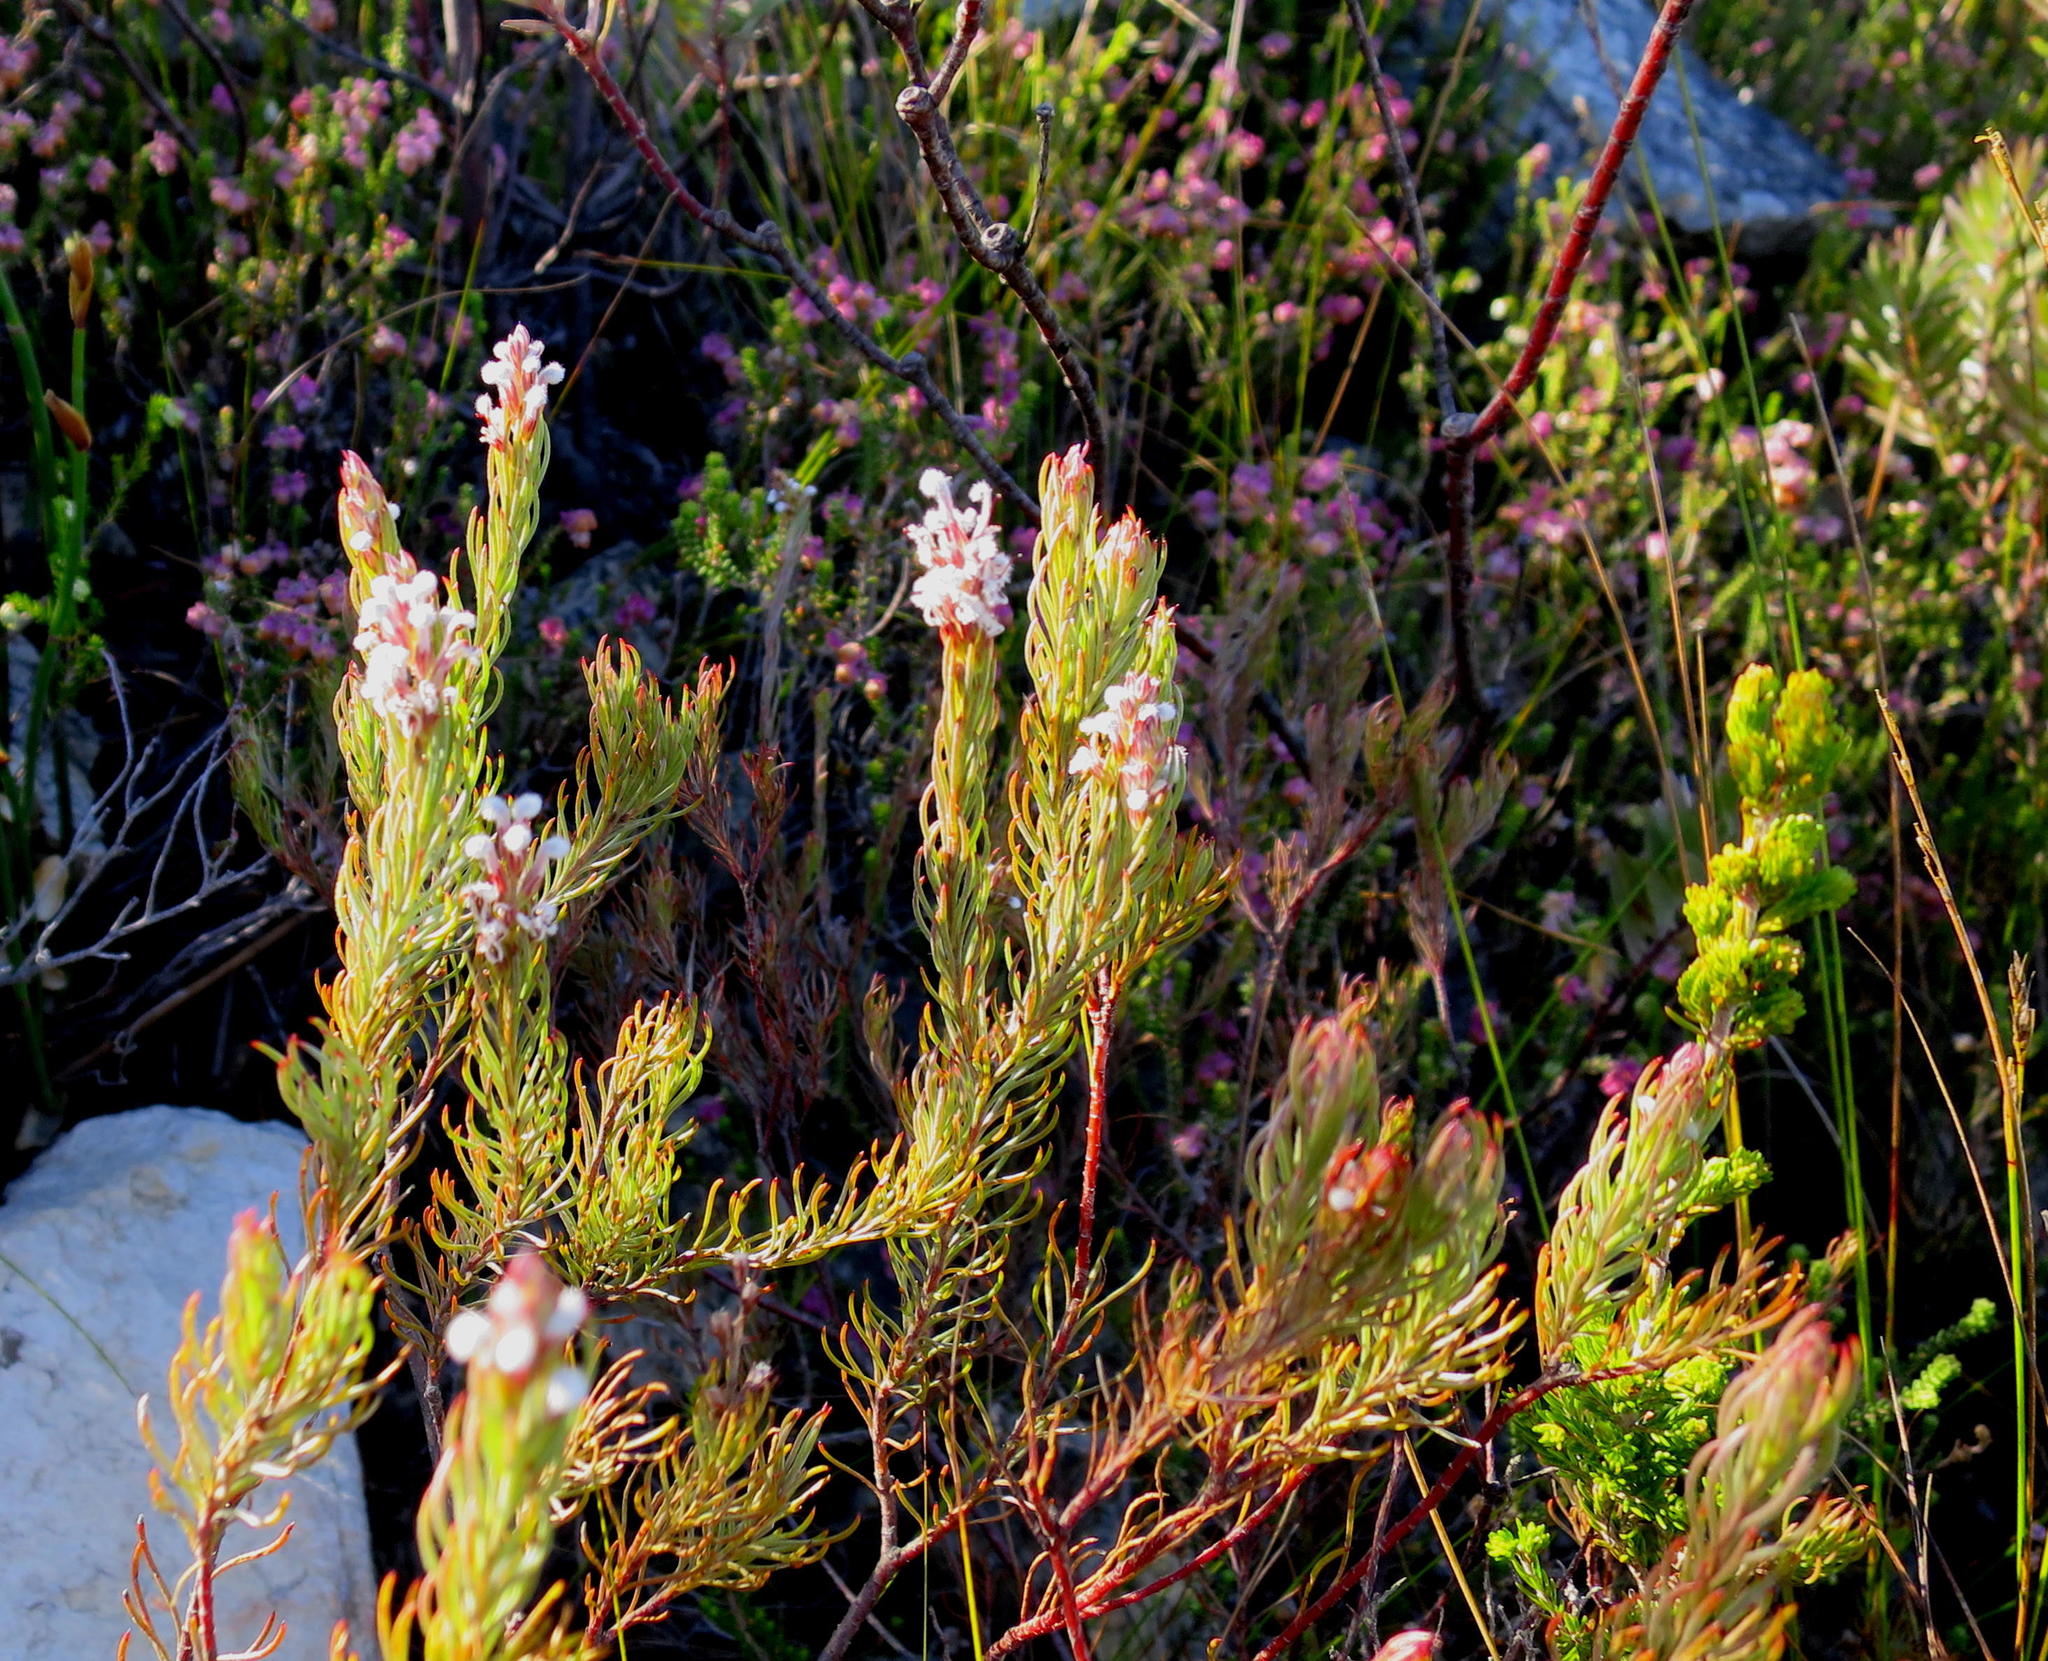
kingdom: Plantae
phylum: Tracheophyta
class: Magnoliopsida
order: Proteales
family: Proteaceae
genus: Spatalla
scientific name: Spatalla barbigera
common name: Fine-leaf spoon
